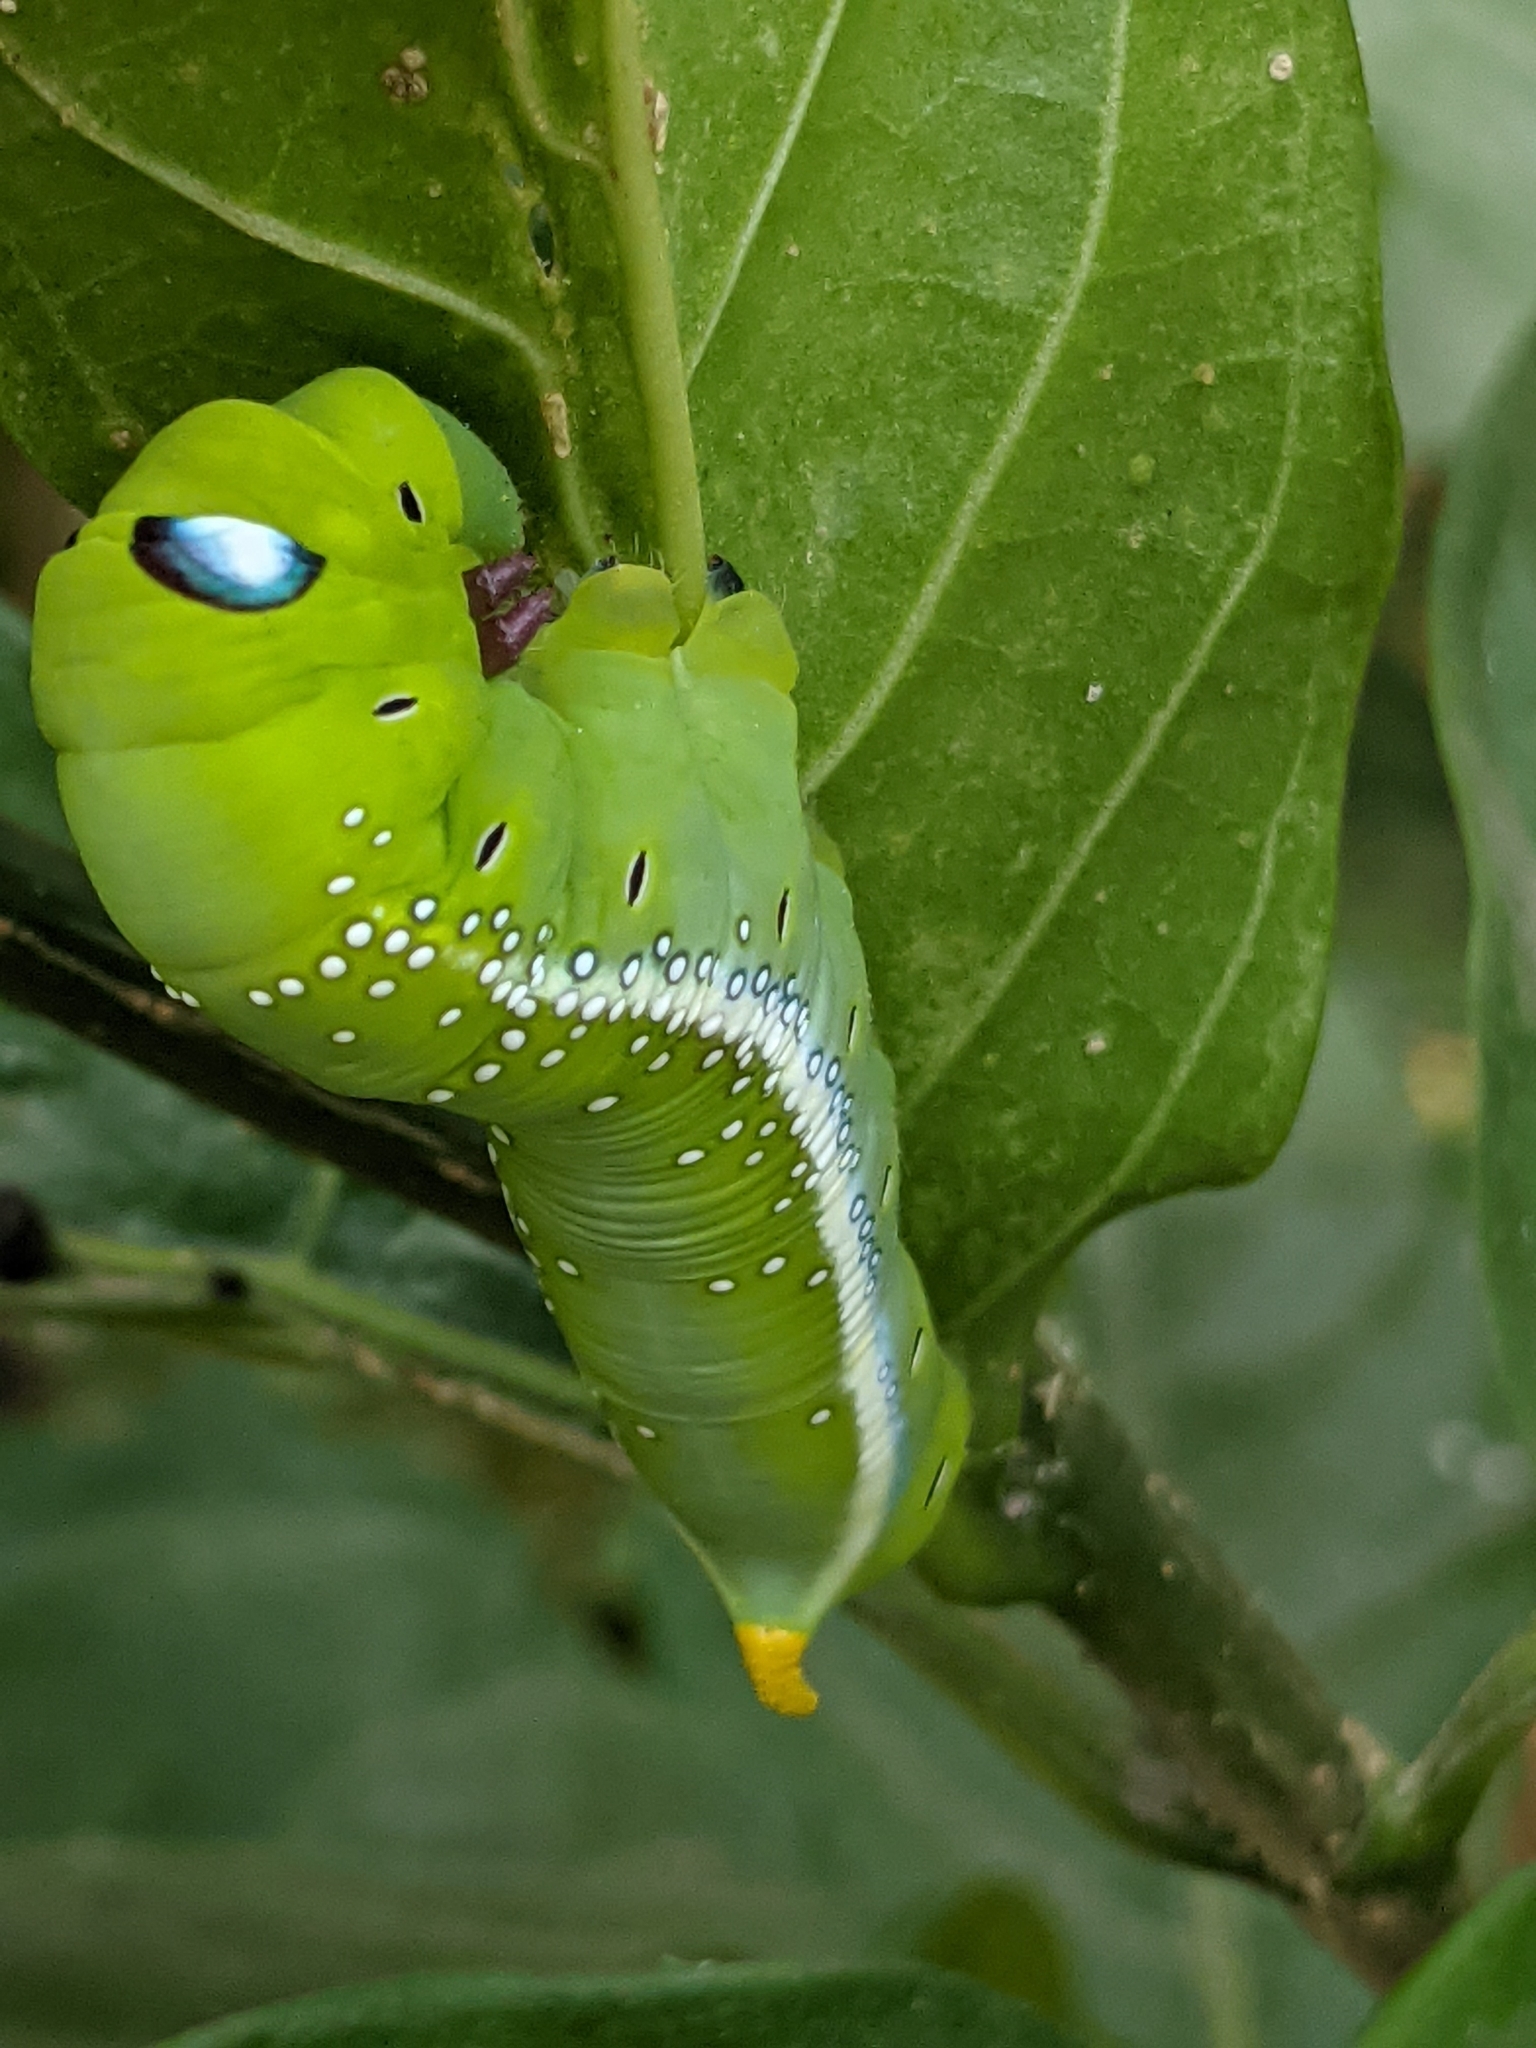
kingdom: Animalia
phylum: Arthropoda
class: Insecta
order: Lepidoptera
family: Sphingidae
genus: Daphnis
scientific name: Daphnis nerii
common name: Oleander hawk-moth
